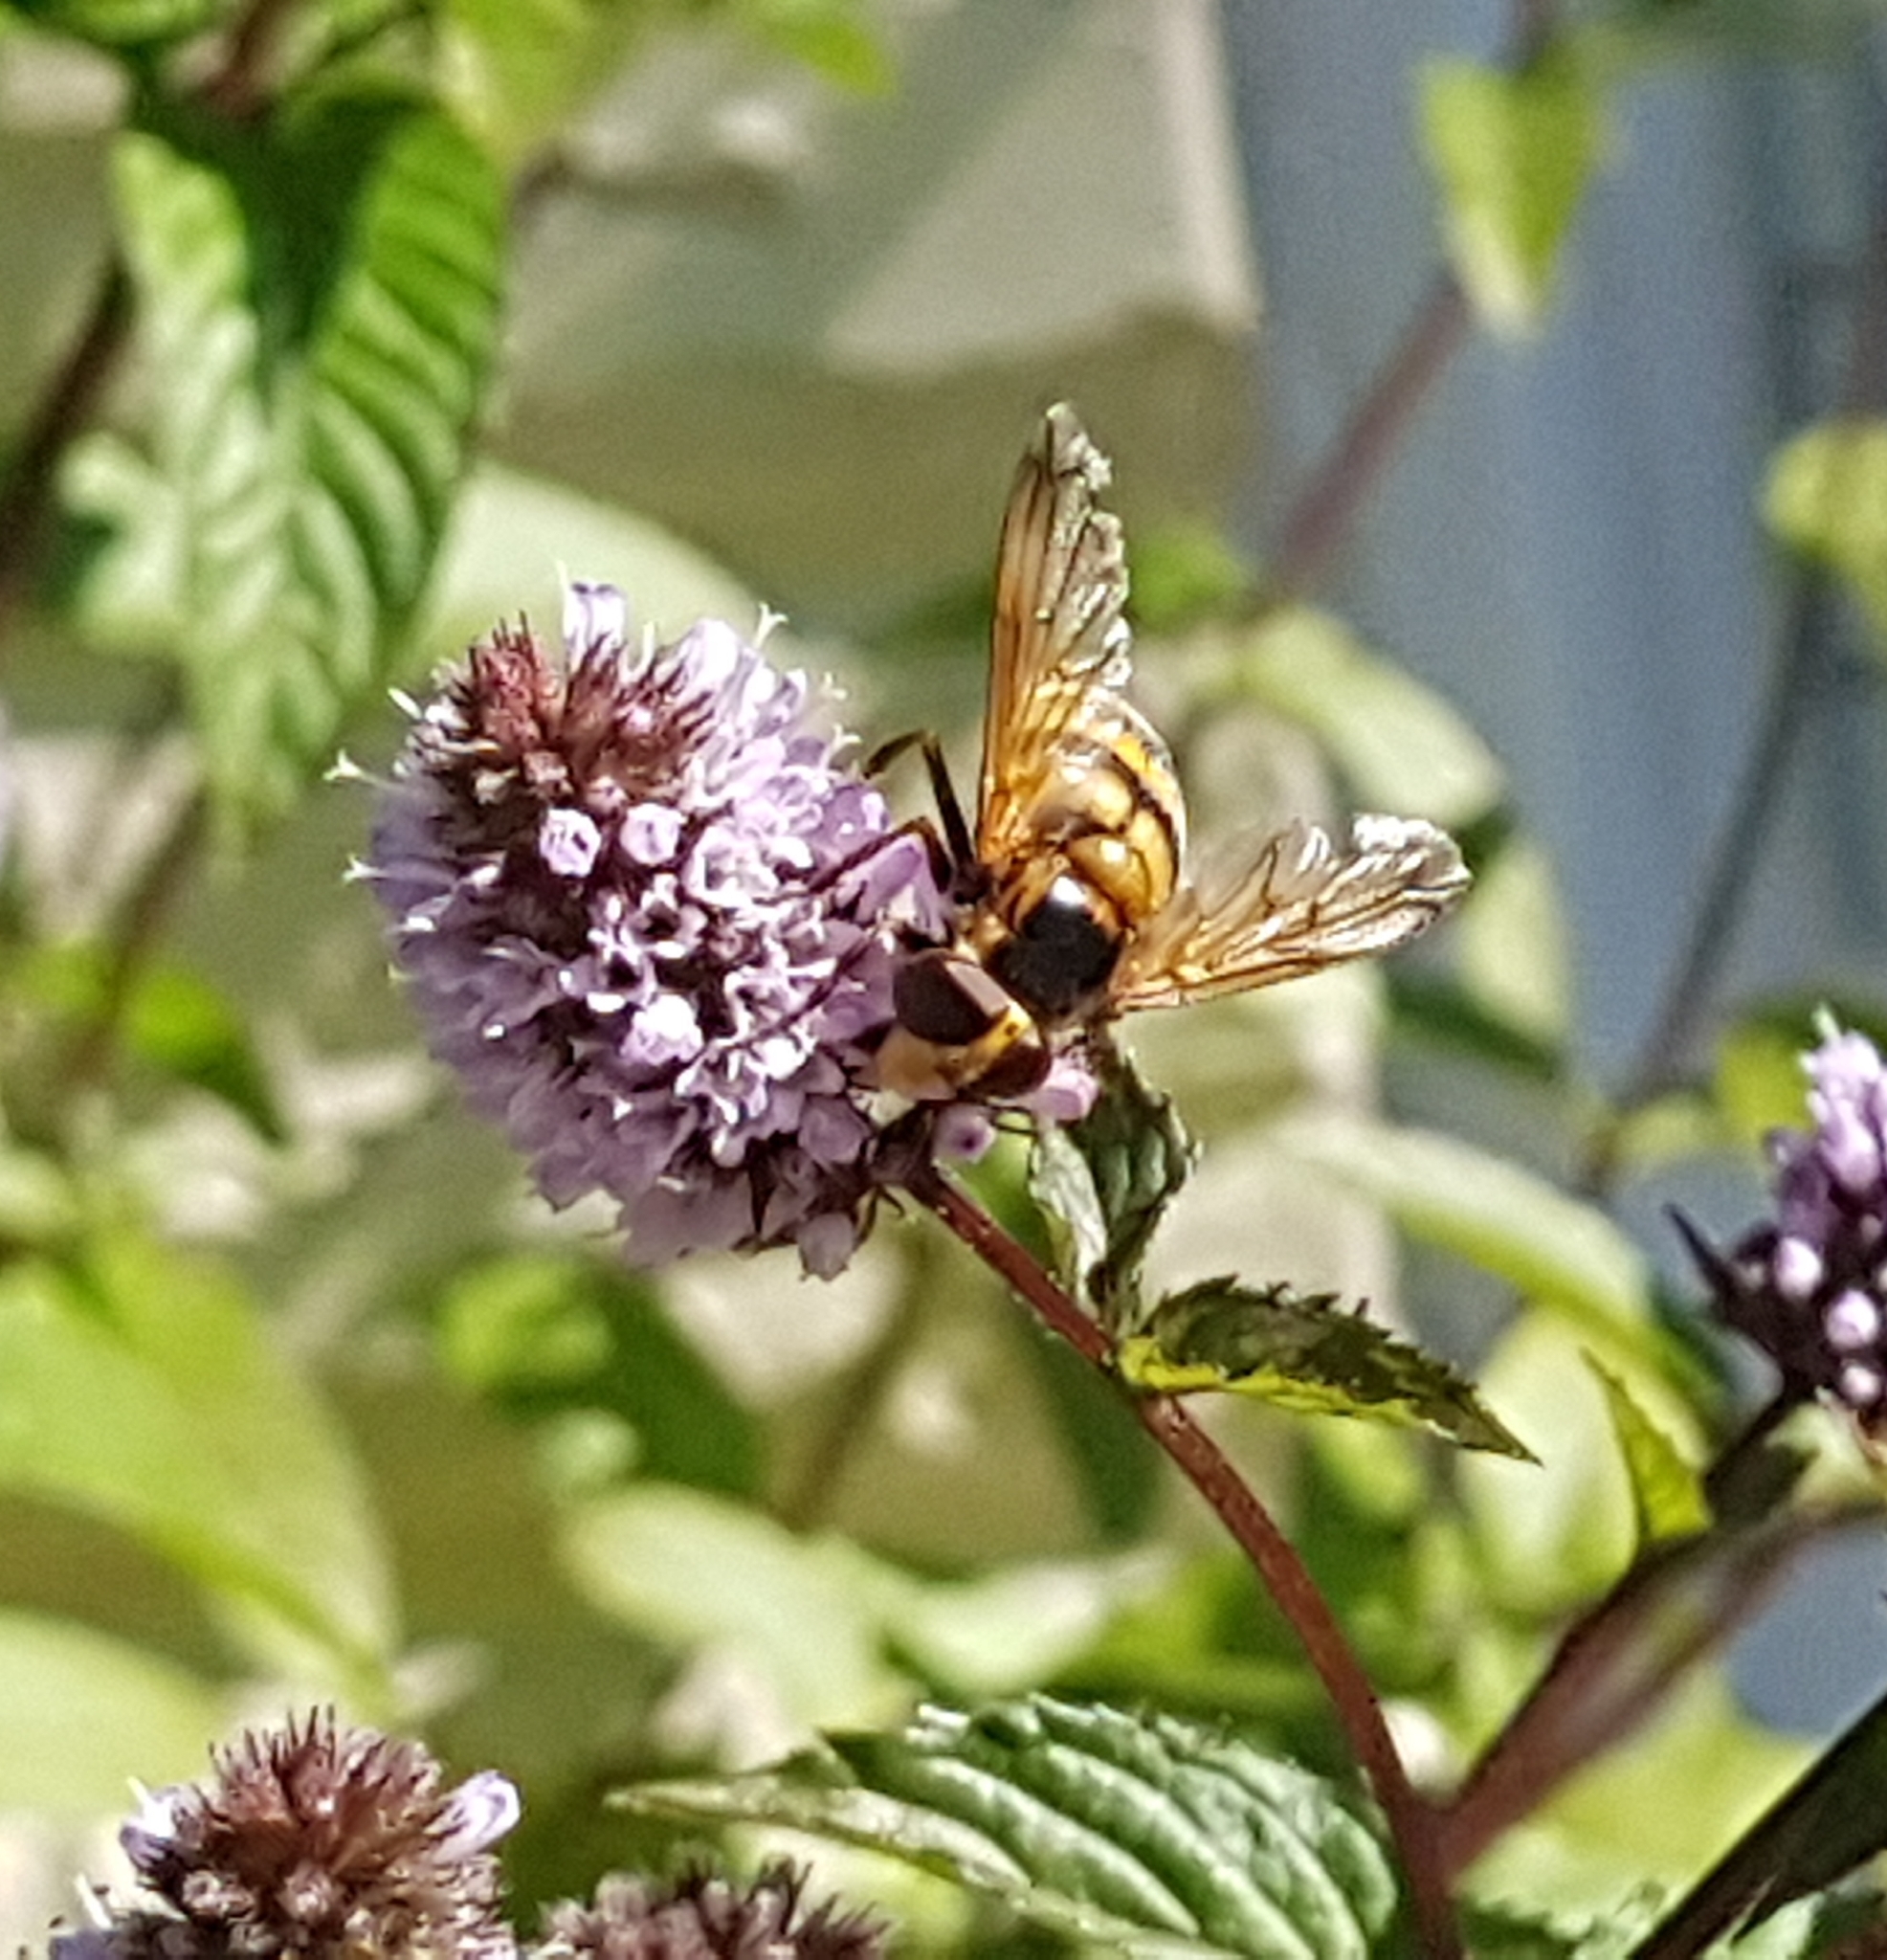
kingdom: Animalia
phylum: Arthropoda
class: Insecta
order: Diptera
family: Syrphidae
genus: Volucella
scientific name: Volucella inanis
